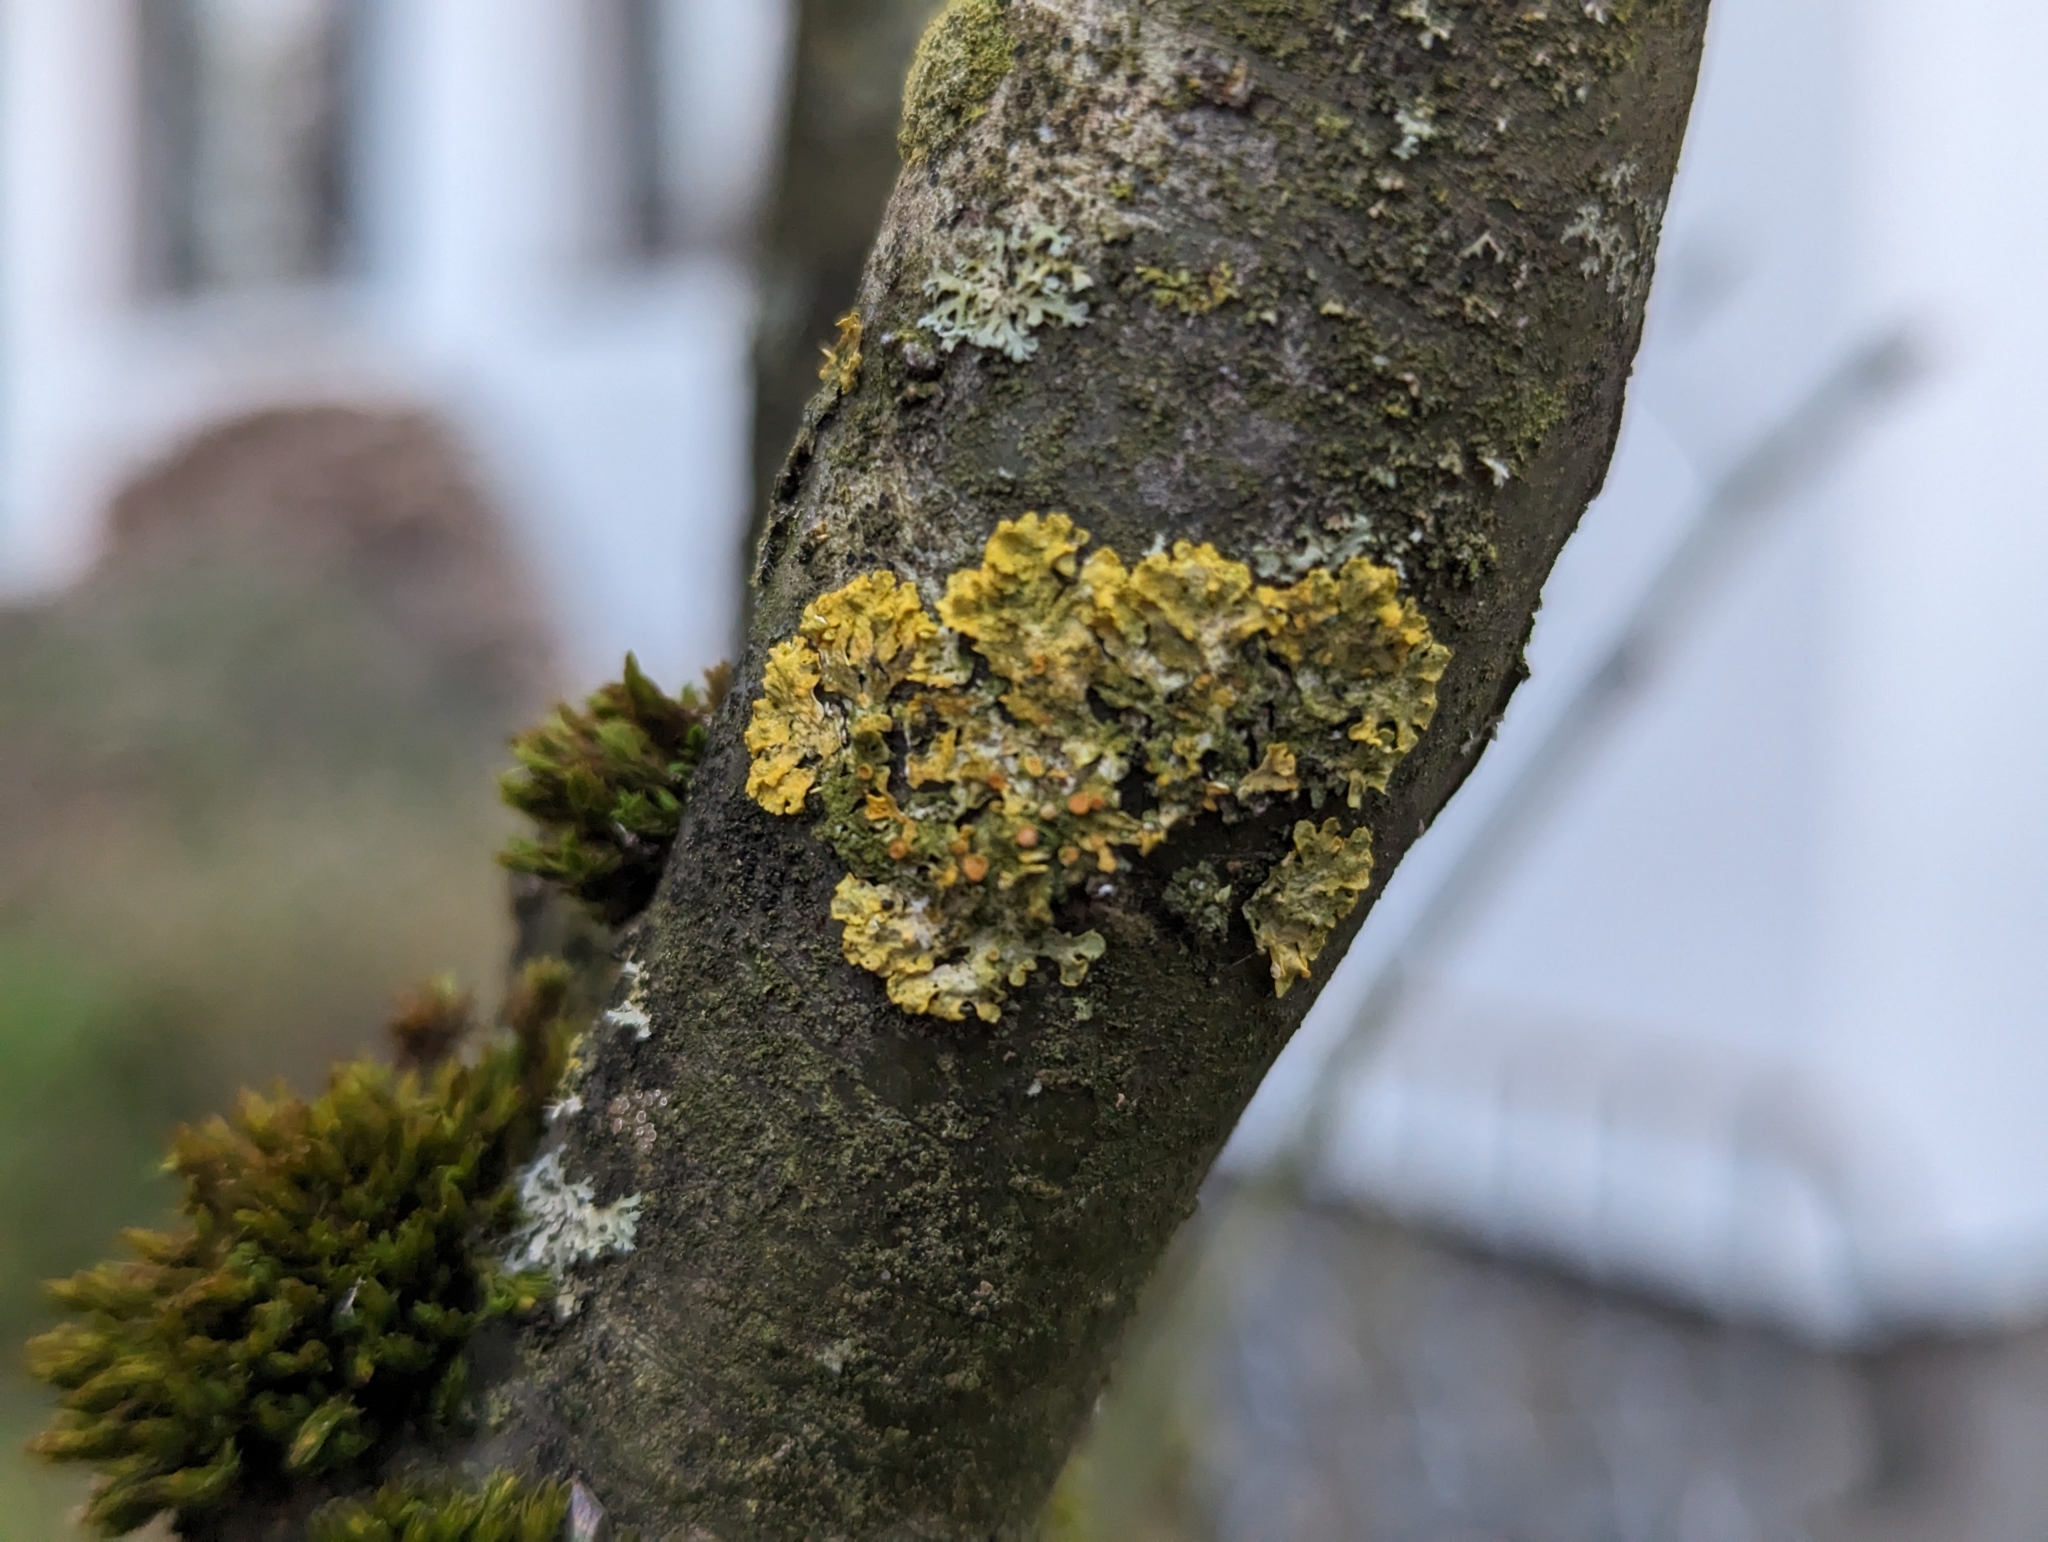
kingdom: Fungi
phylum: Ascomycota
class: Lecanoromycetes
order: Teloschistales
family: Teloschistaceae
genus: Xanthoria
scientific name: Xanthoria parietina
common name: Common orange lichen
